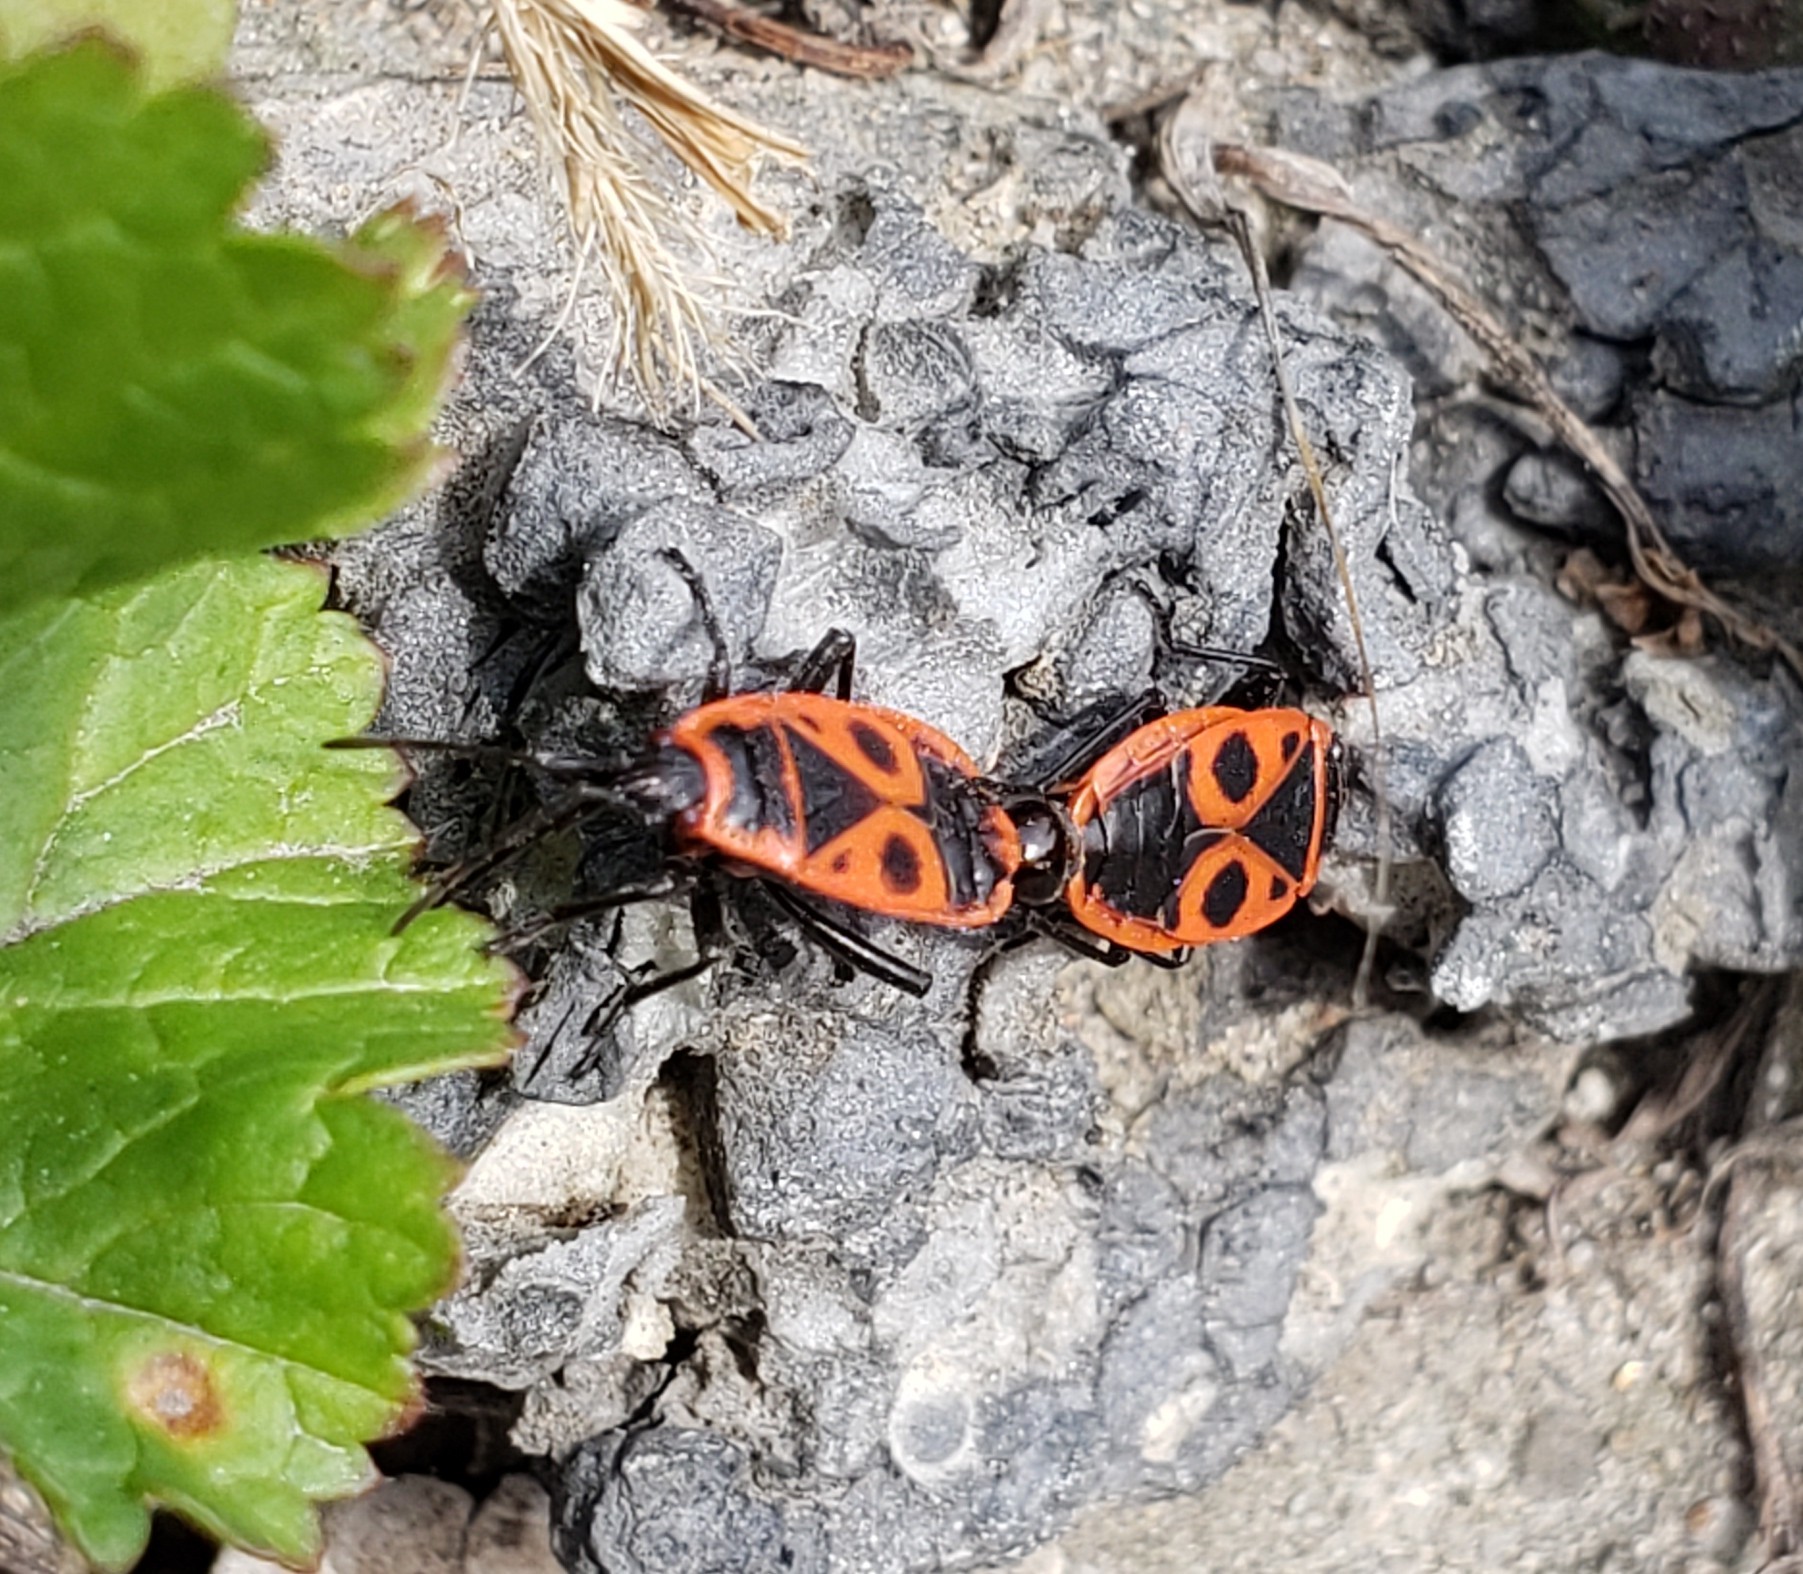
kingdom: Animalia
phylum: Arthropoda
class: Insecta
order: Hemiptera
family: Pyrrhocoridae
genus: Pyrrhocoris
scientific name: Pyrrhocoris apterus
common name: Firebug
